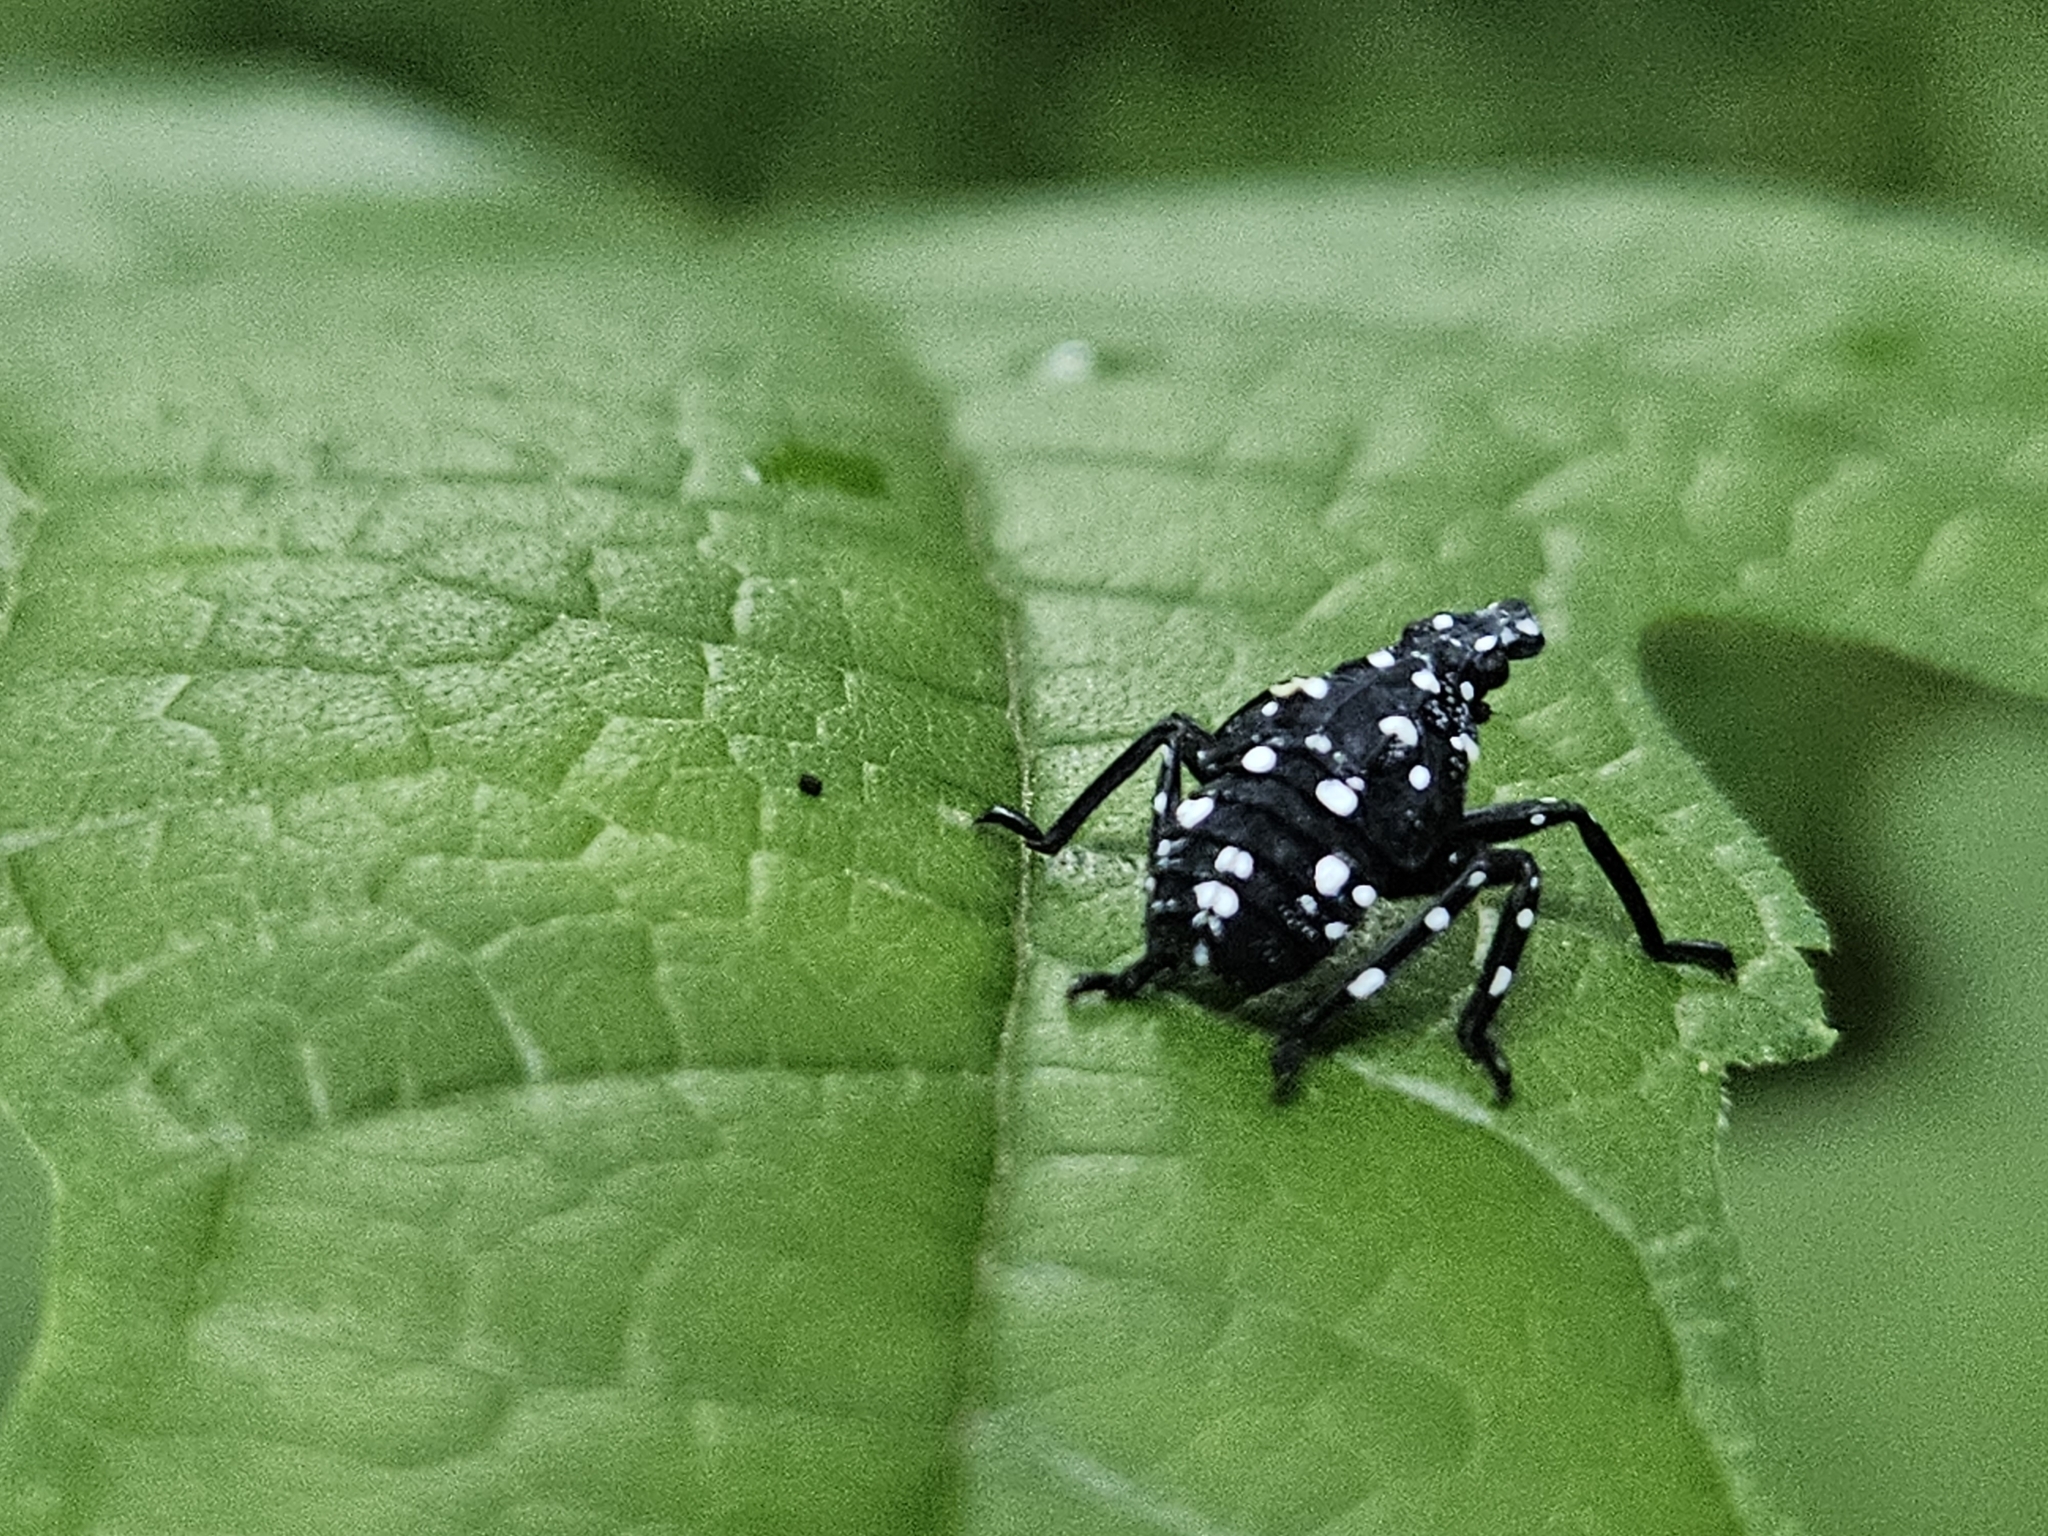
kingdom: Animalia
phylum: Arthropoda
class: Insecta
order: Hemiptera
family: Fulgoridae
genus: Lycorma
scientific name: Lycorma delicatula
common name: Spotted lanternfly
